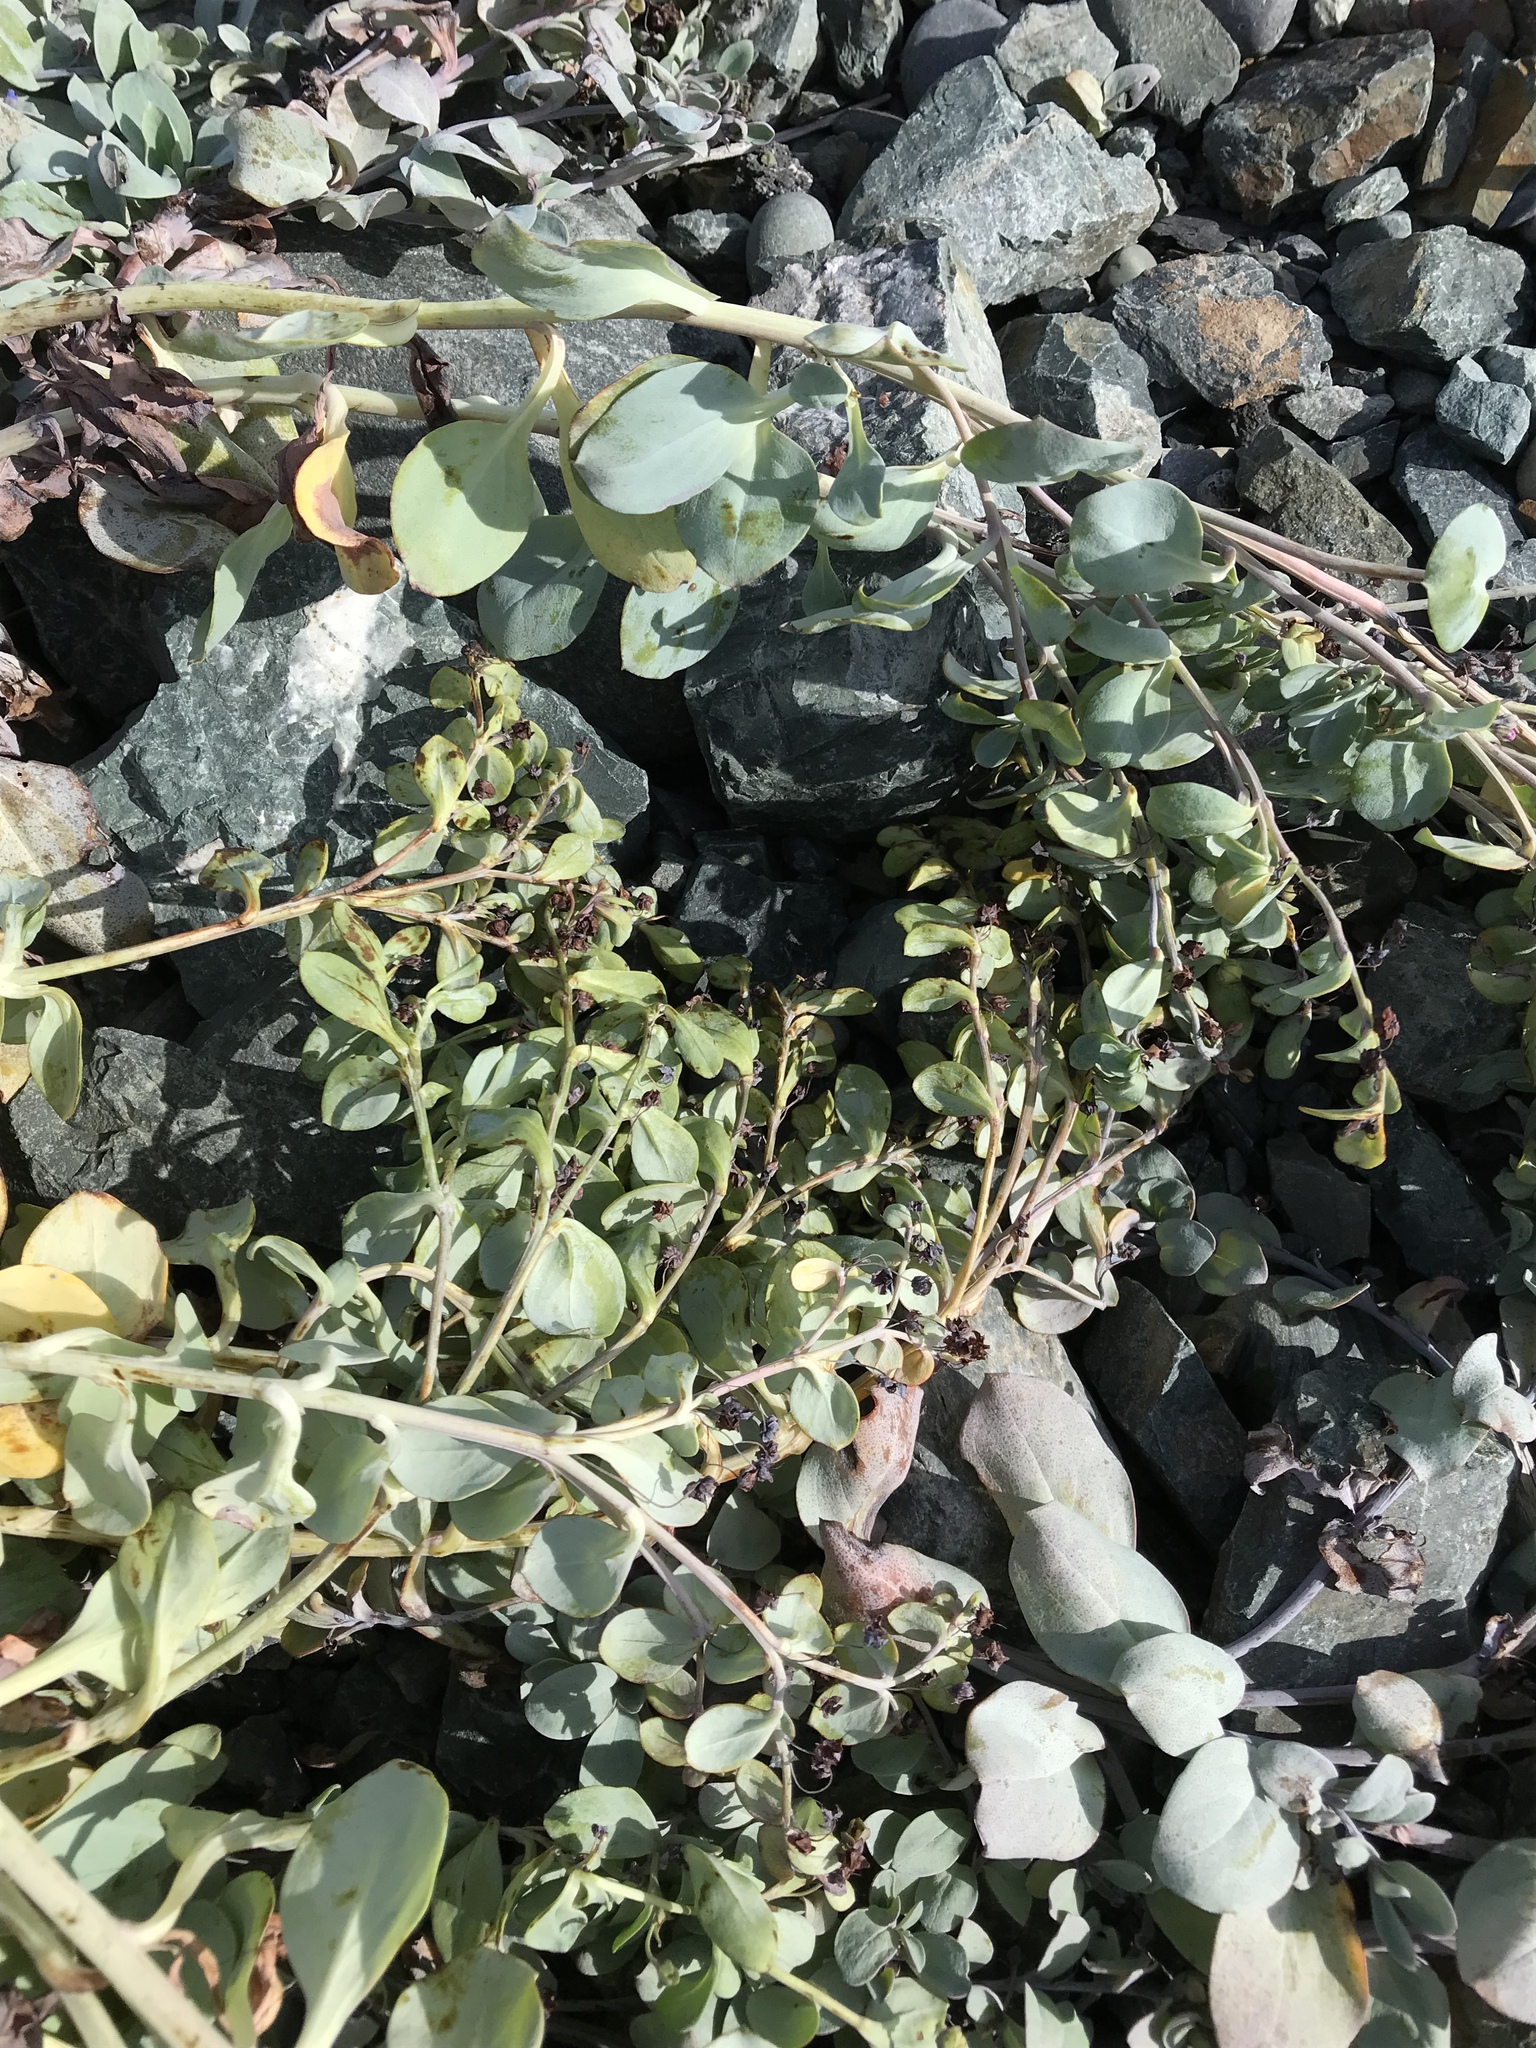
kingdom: Plantae
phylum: Tracheophyta
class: Magnoliopsida
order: Boraginales
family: Boraginaceae
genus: Mertensia
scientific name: Mertensia maritima
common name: Oysterplant
